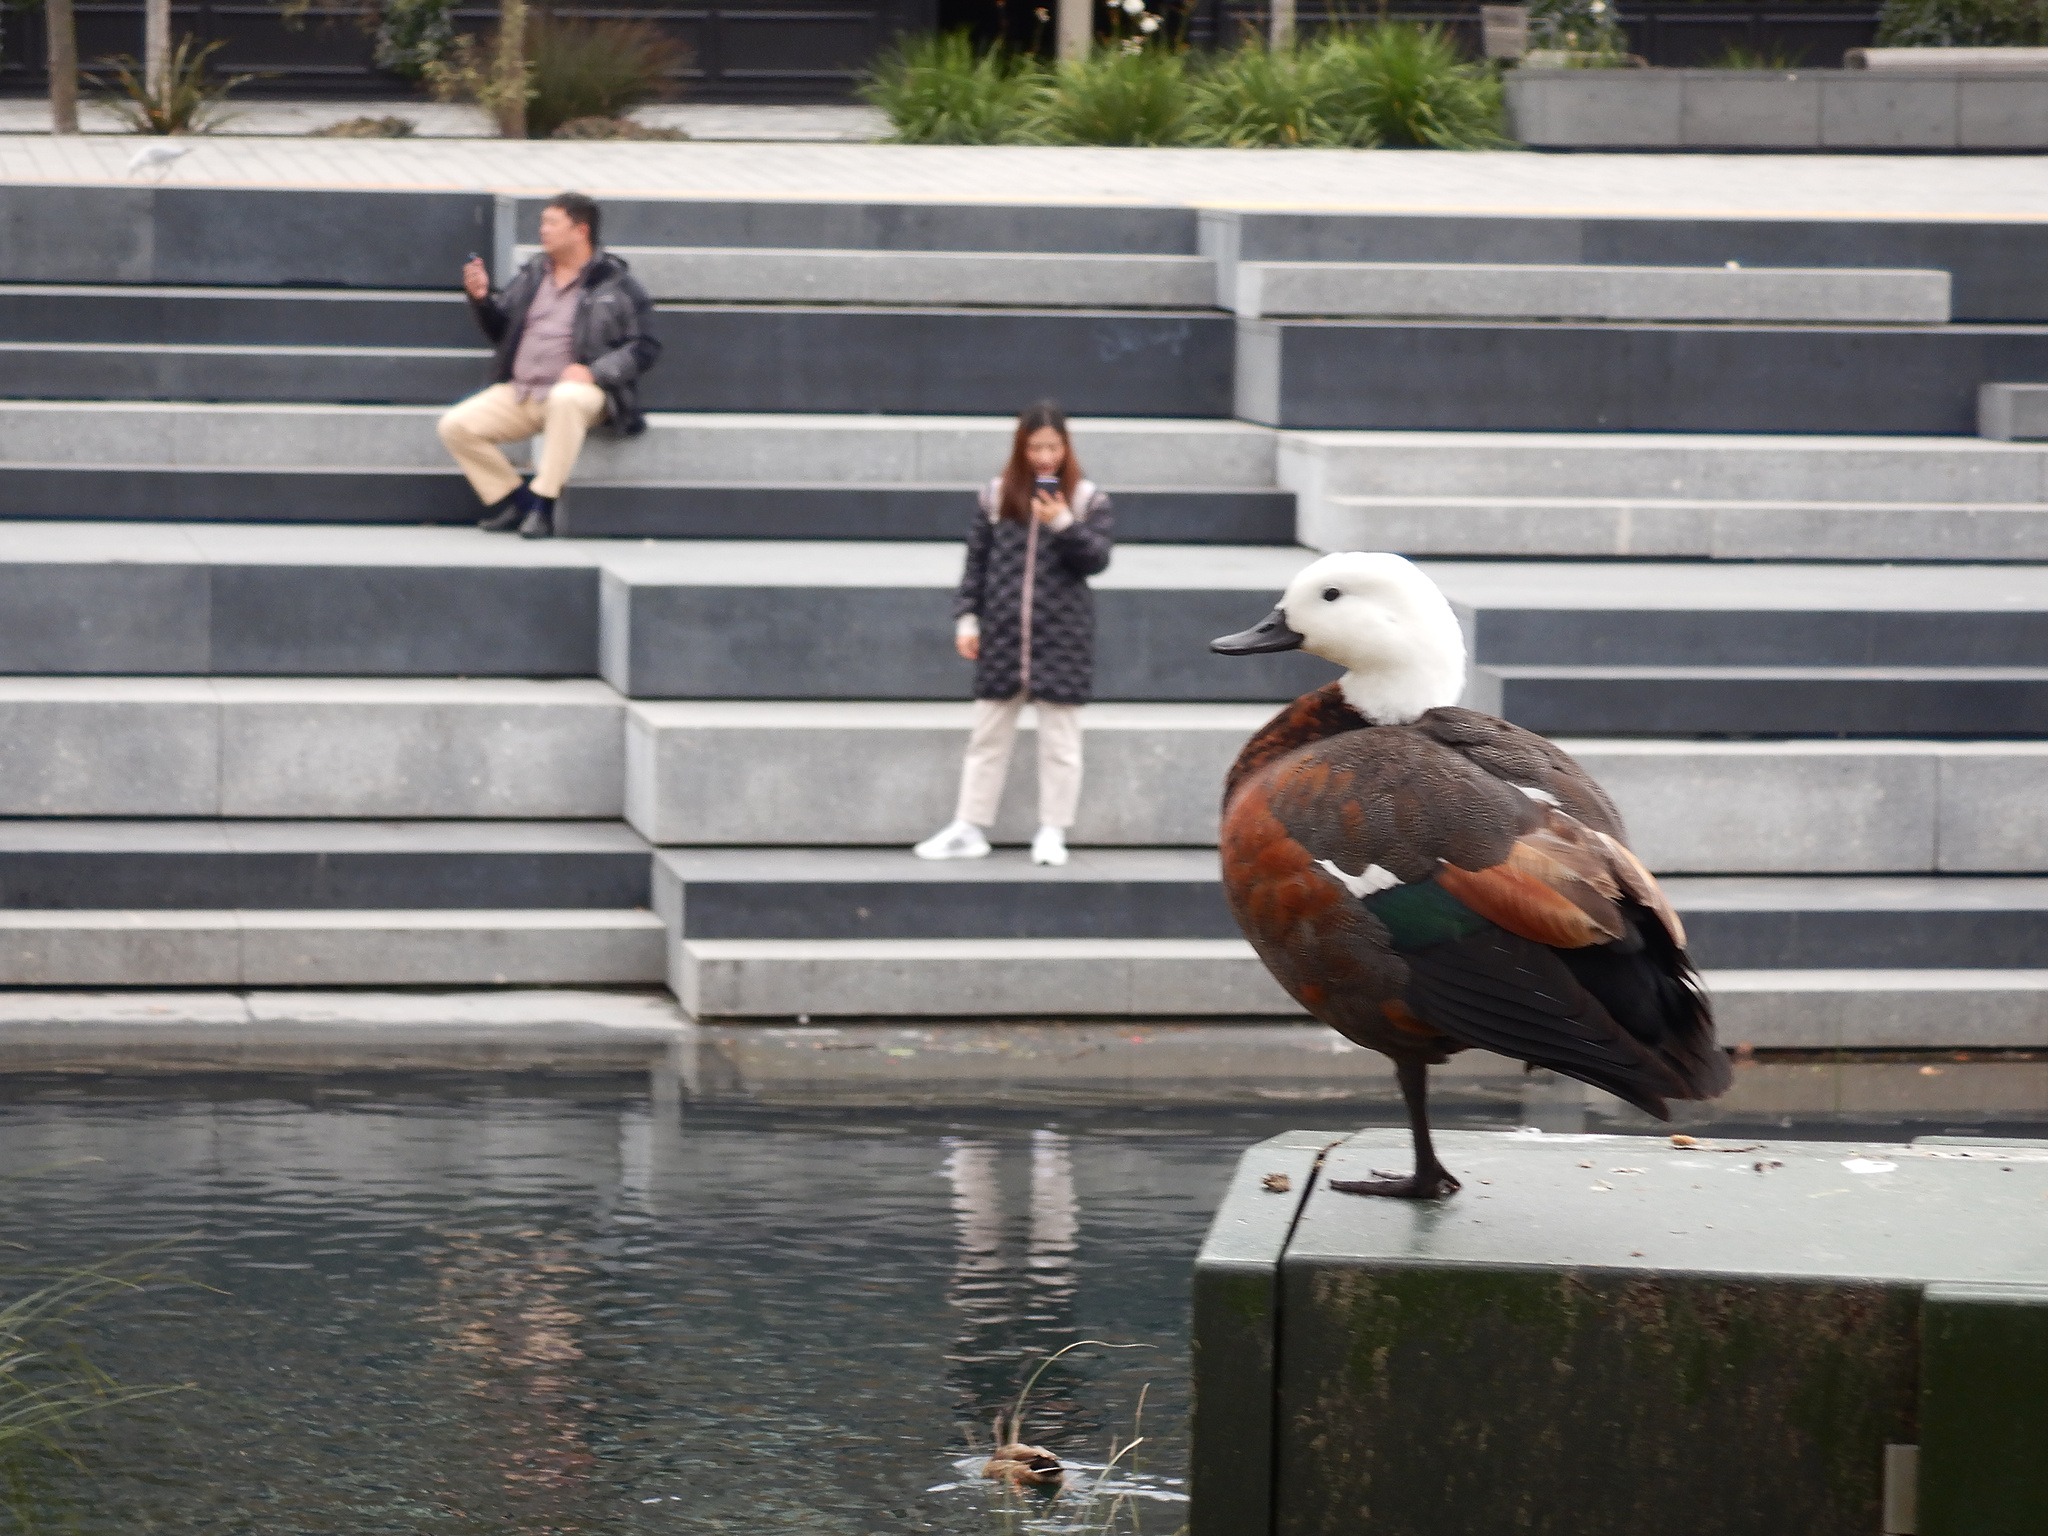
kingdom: Animalia
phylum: Chordata
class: Aves
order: Anseriformes
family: Anatidae
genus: Tadorna
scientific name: Tadorna variegata
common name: Paradise shelduck
